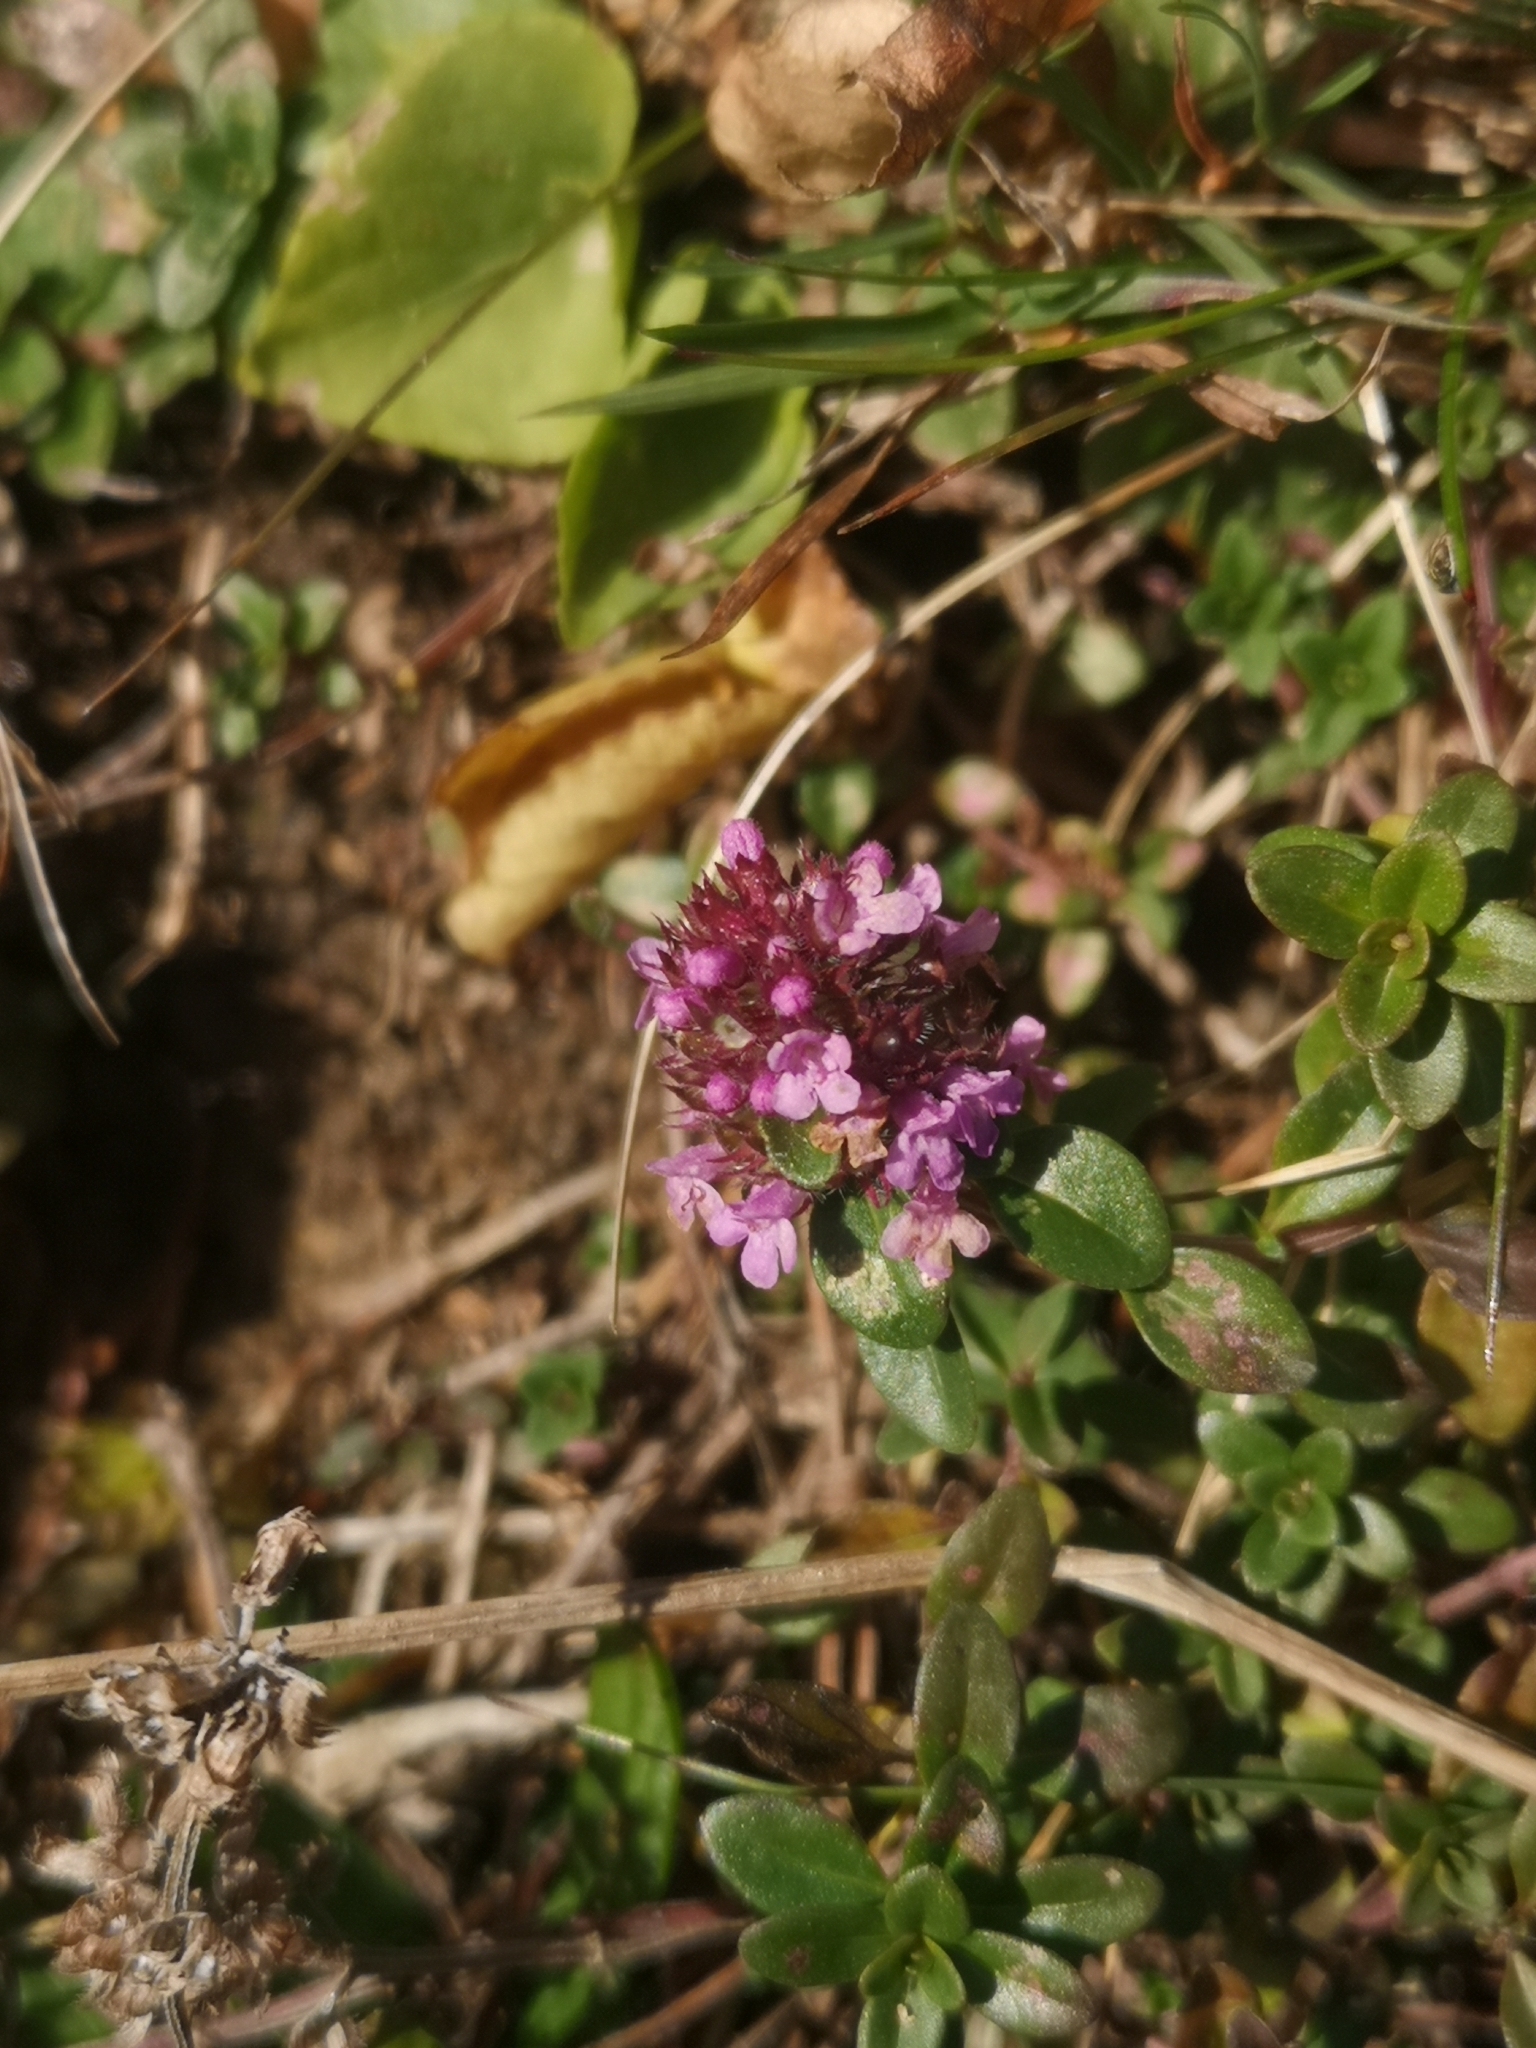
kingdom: Plantae
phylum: Tracheophyta
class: Magnoliopsida
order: Lamiales
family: Lamiaceae
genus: Thymus
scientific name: Thymus pulegioides
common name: Large thyme
